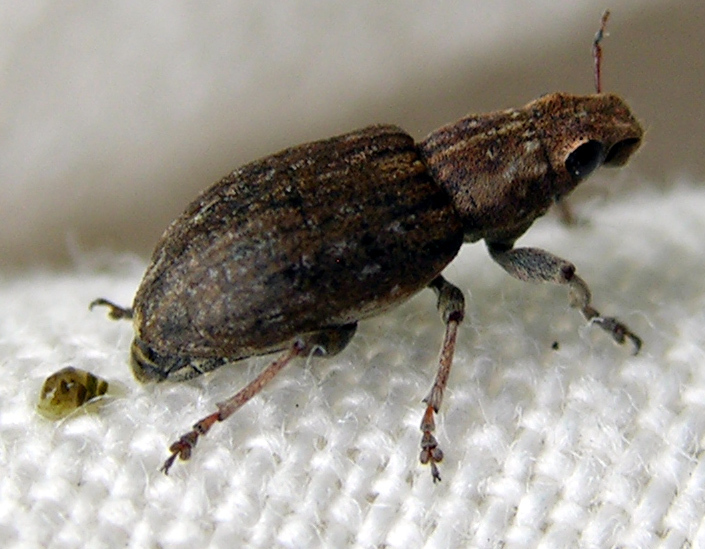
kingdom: Animalia
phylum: Arthropoda
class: Insecta
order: Coleoptera
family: Curculionidae
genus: Sitona
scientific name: Sitona obsoletus
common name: Weevil
